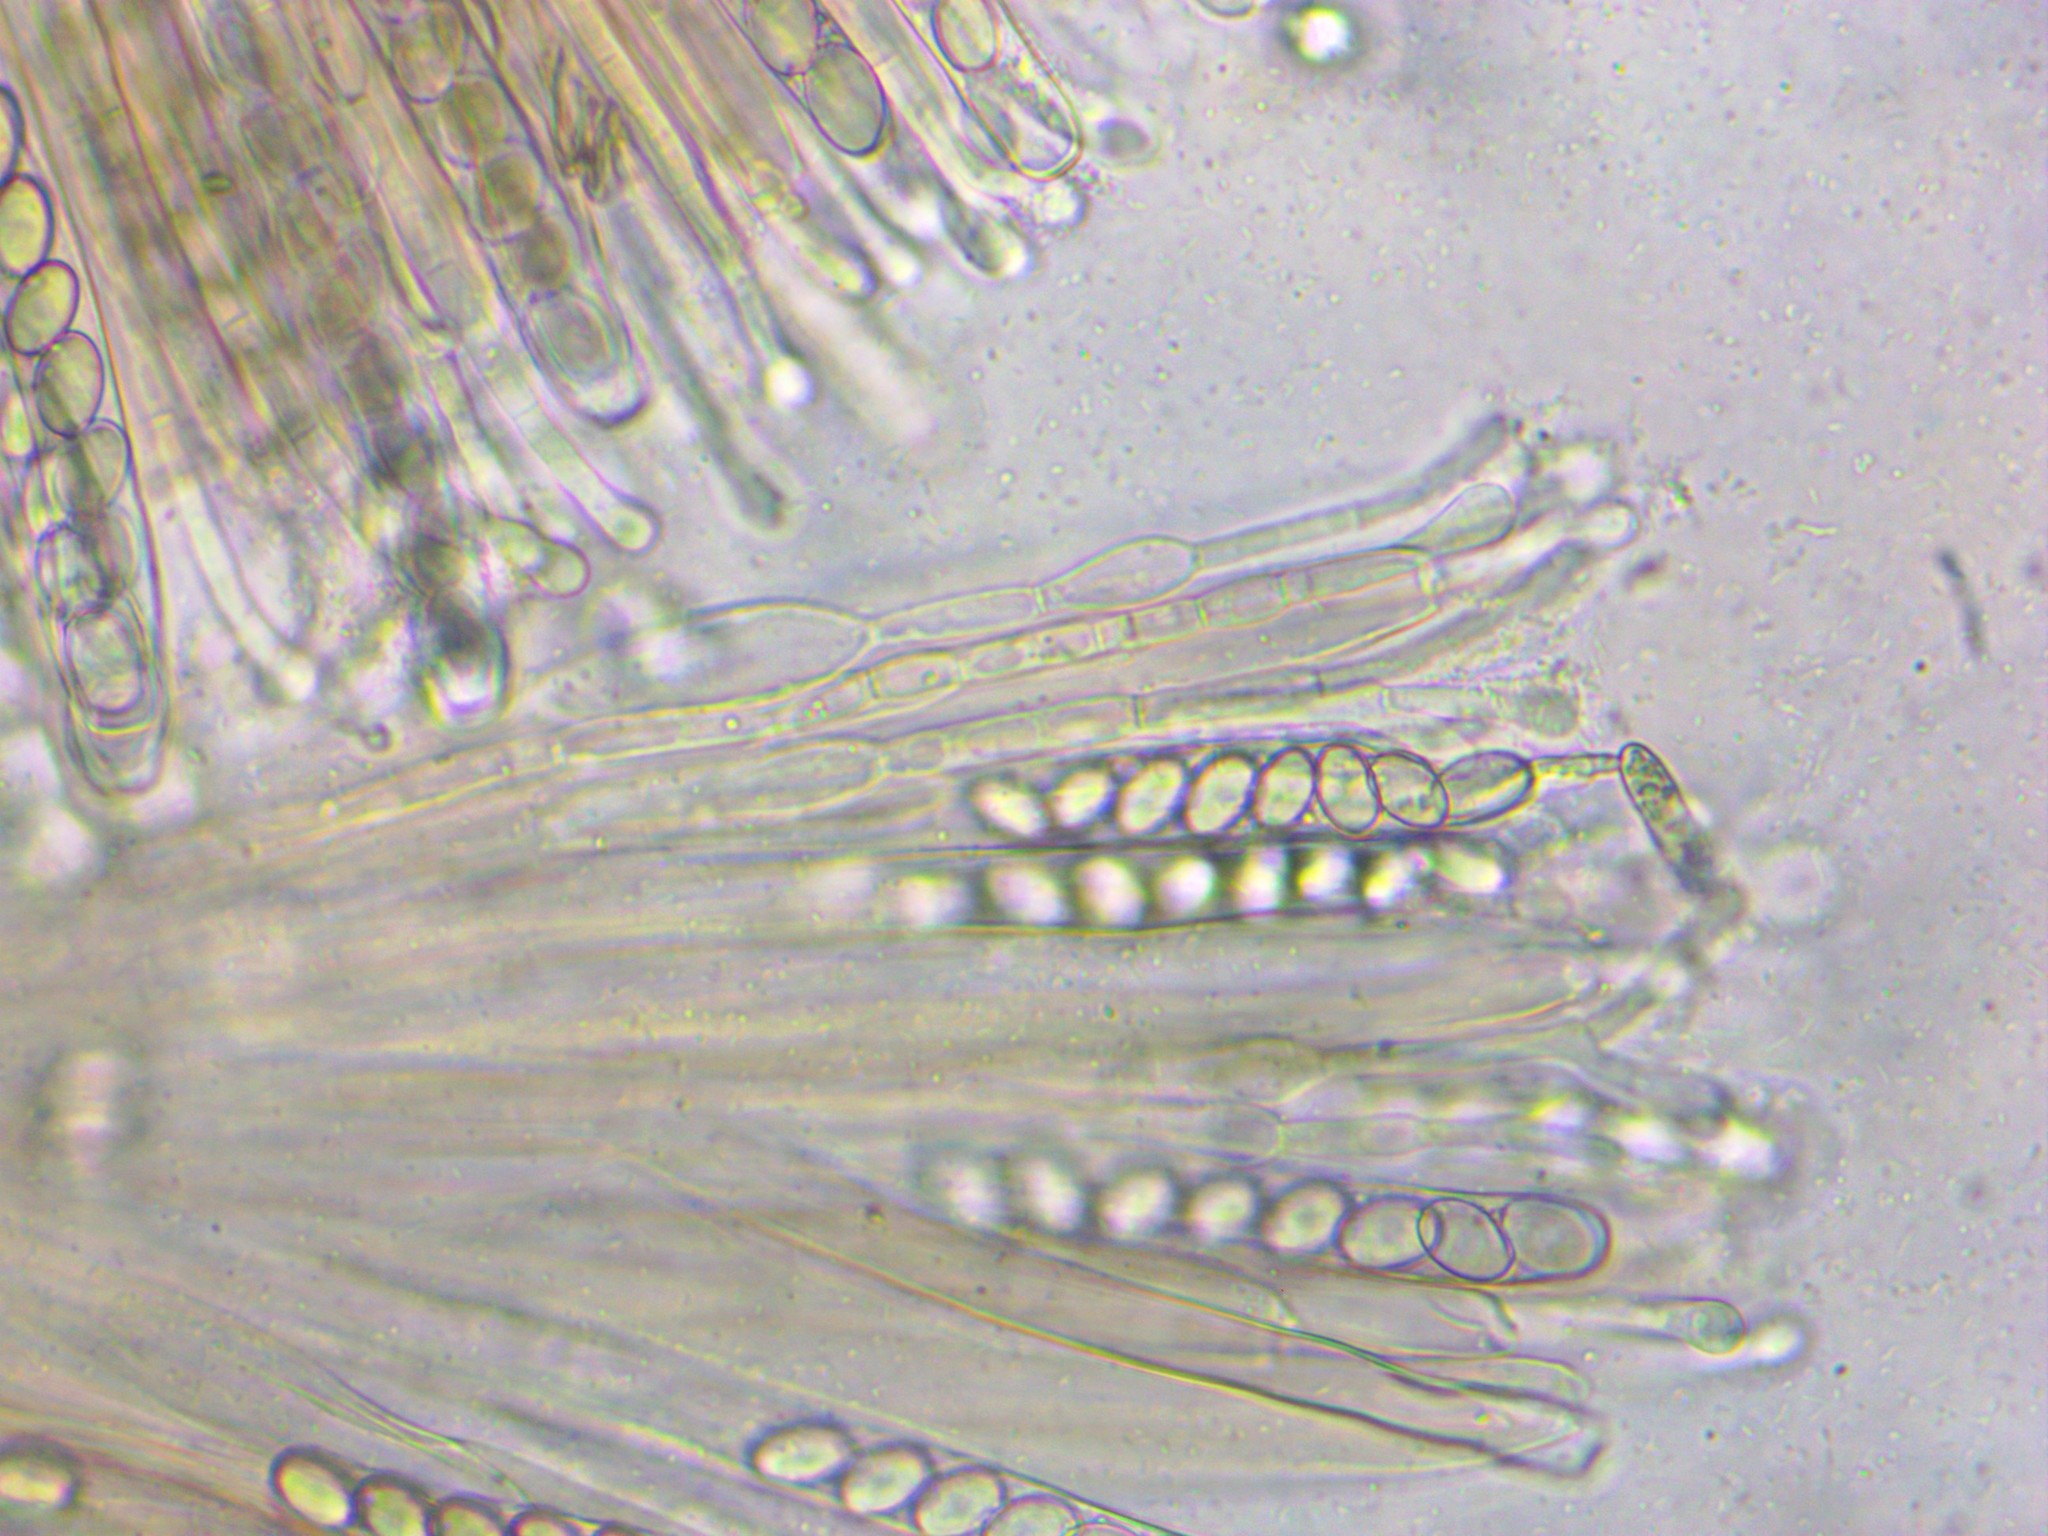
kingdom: Fungi
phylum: Ascomycota
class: Pezizomycetes
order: Pezizales
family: Pezizaceae
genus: Peziza
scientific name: Peziza vesiculosa
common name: Blistered cup
